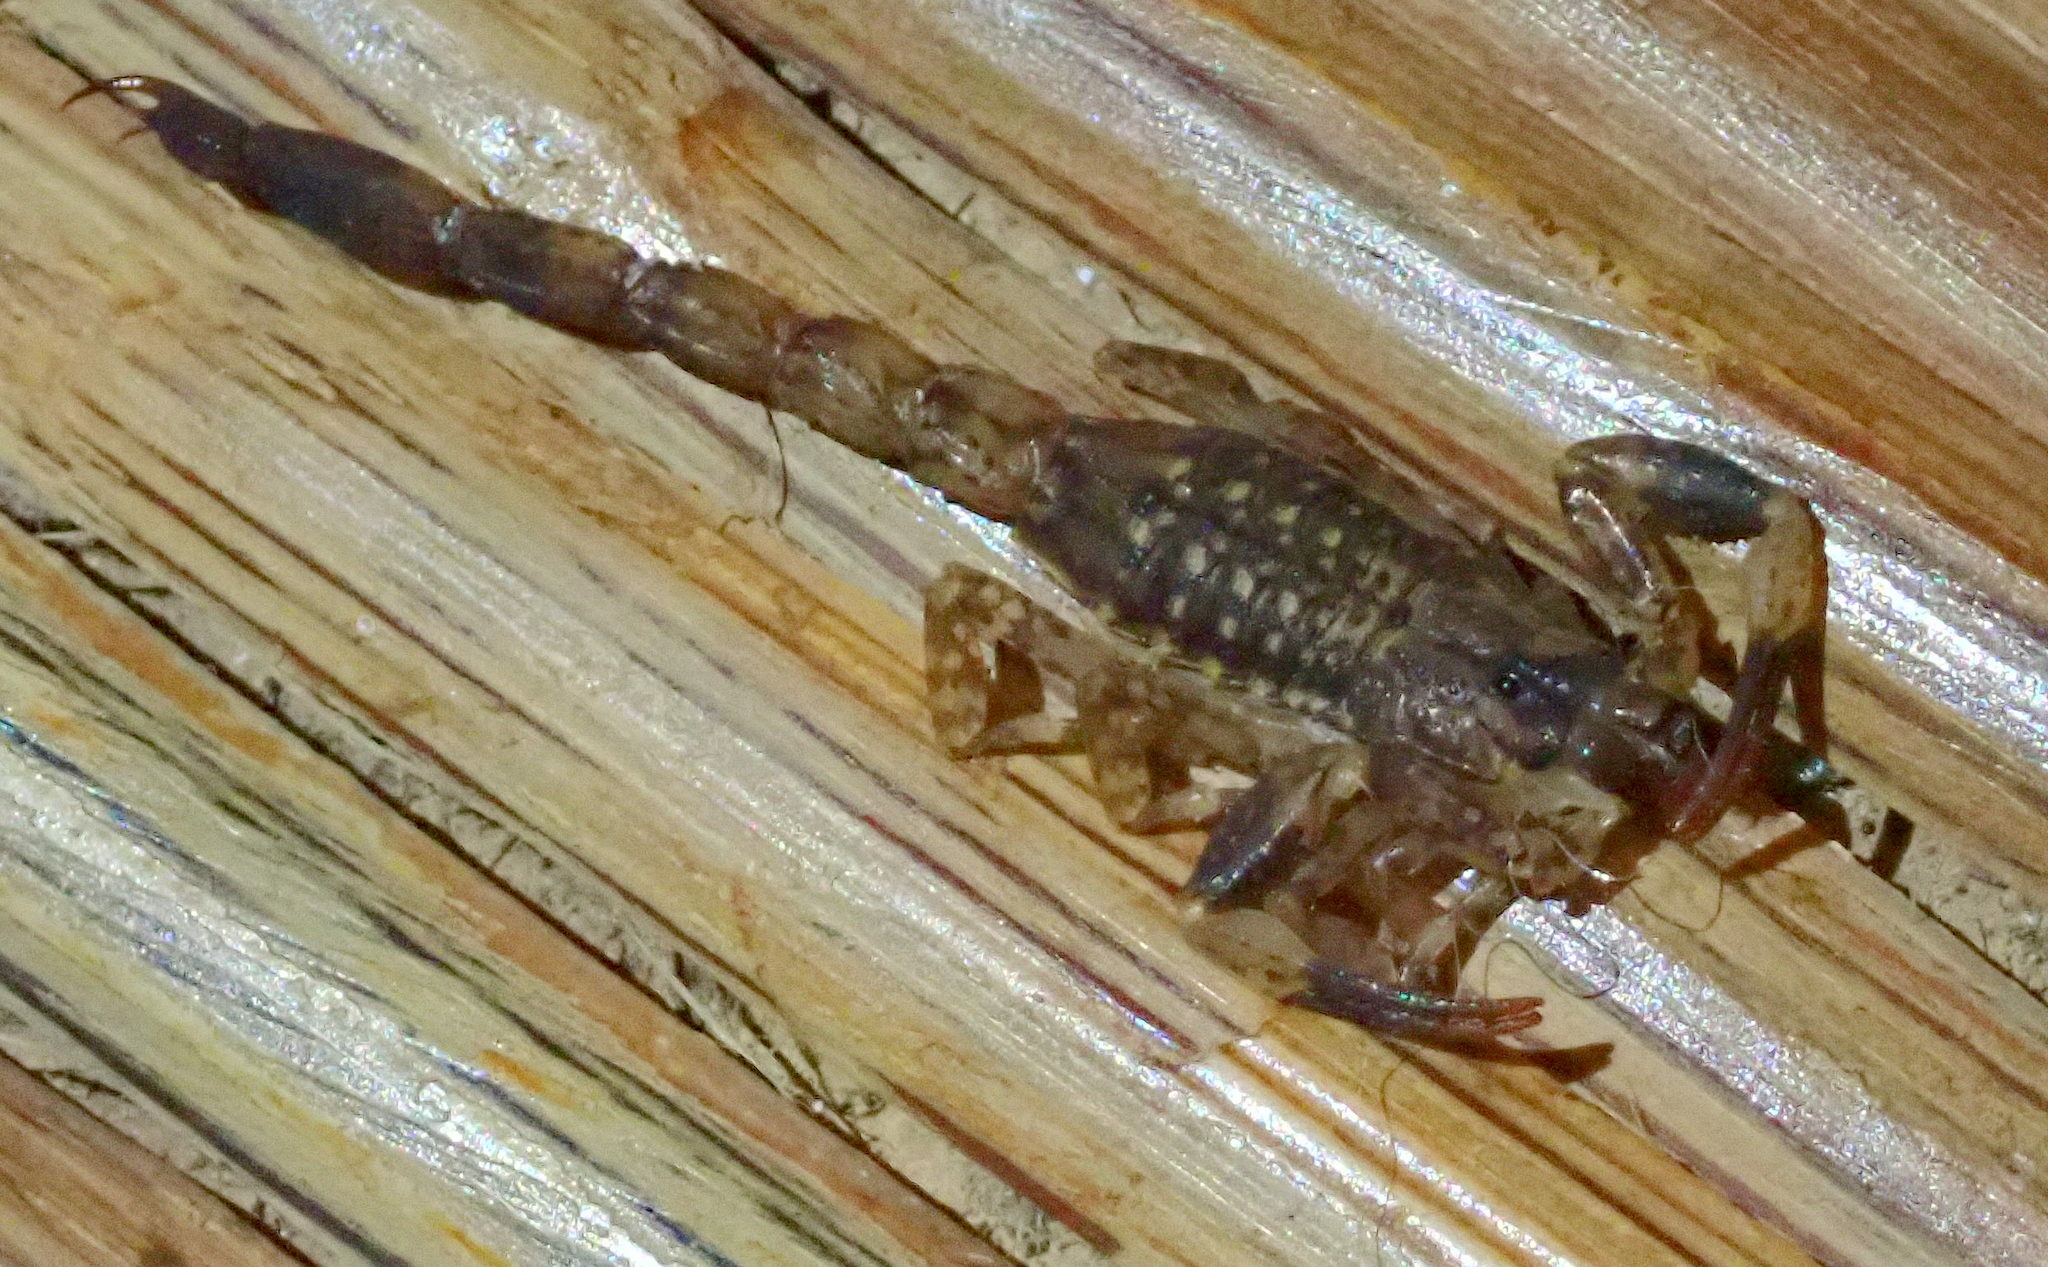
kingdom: Animalia
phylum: Arthropoda
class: Arachnida
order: Scorpiones
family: Buthidae
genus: Lychas
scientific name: Lychas mucronatus
